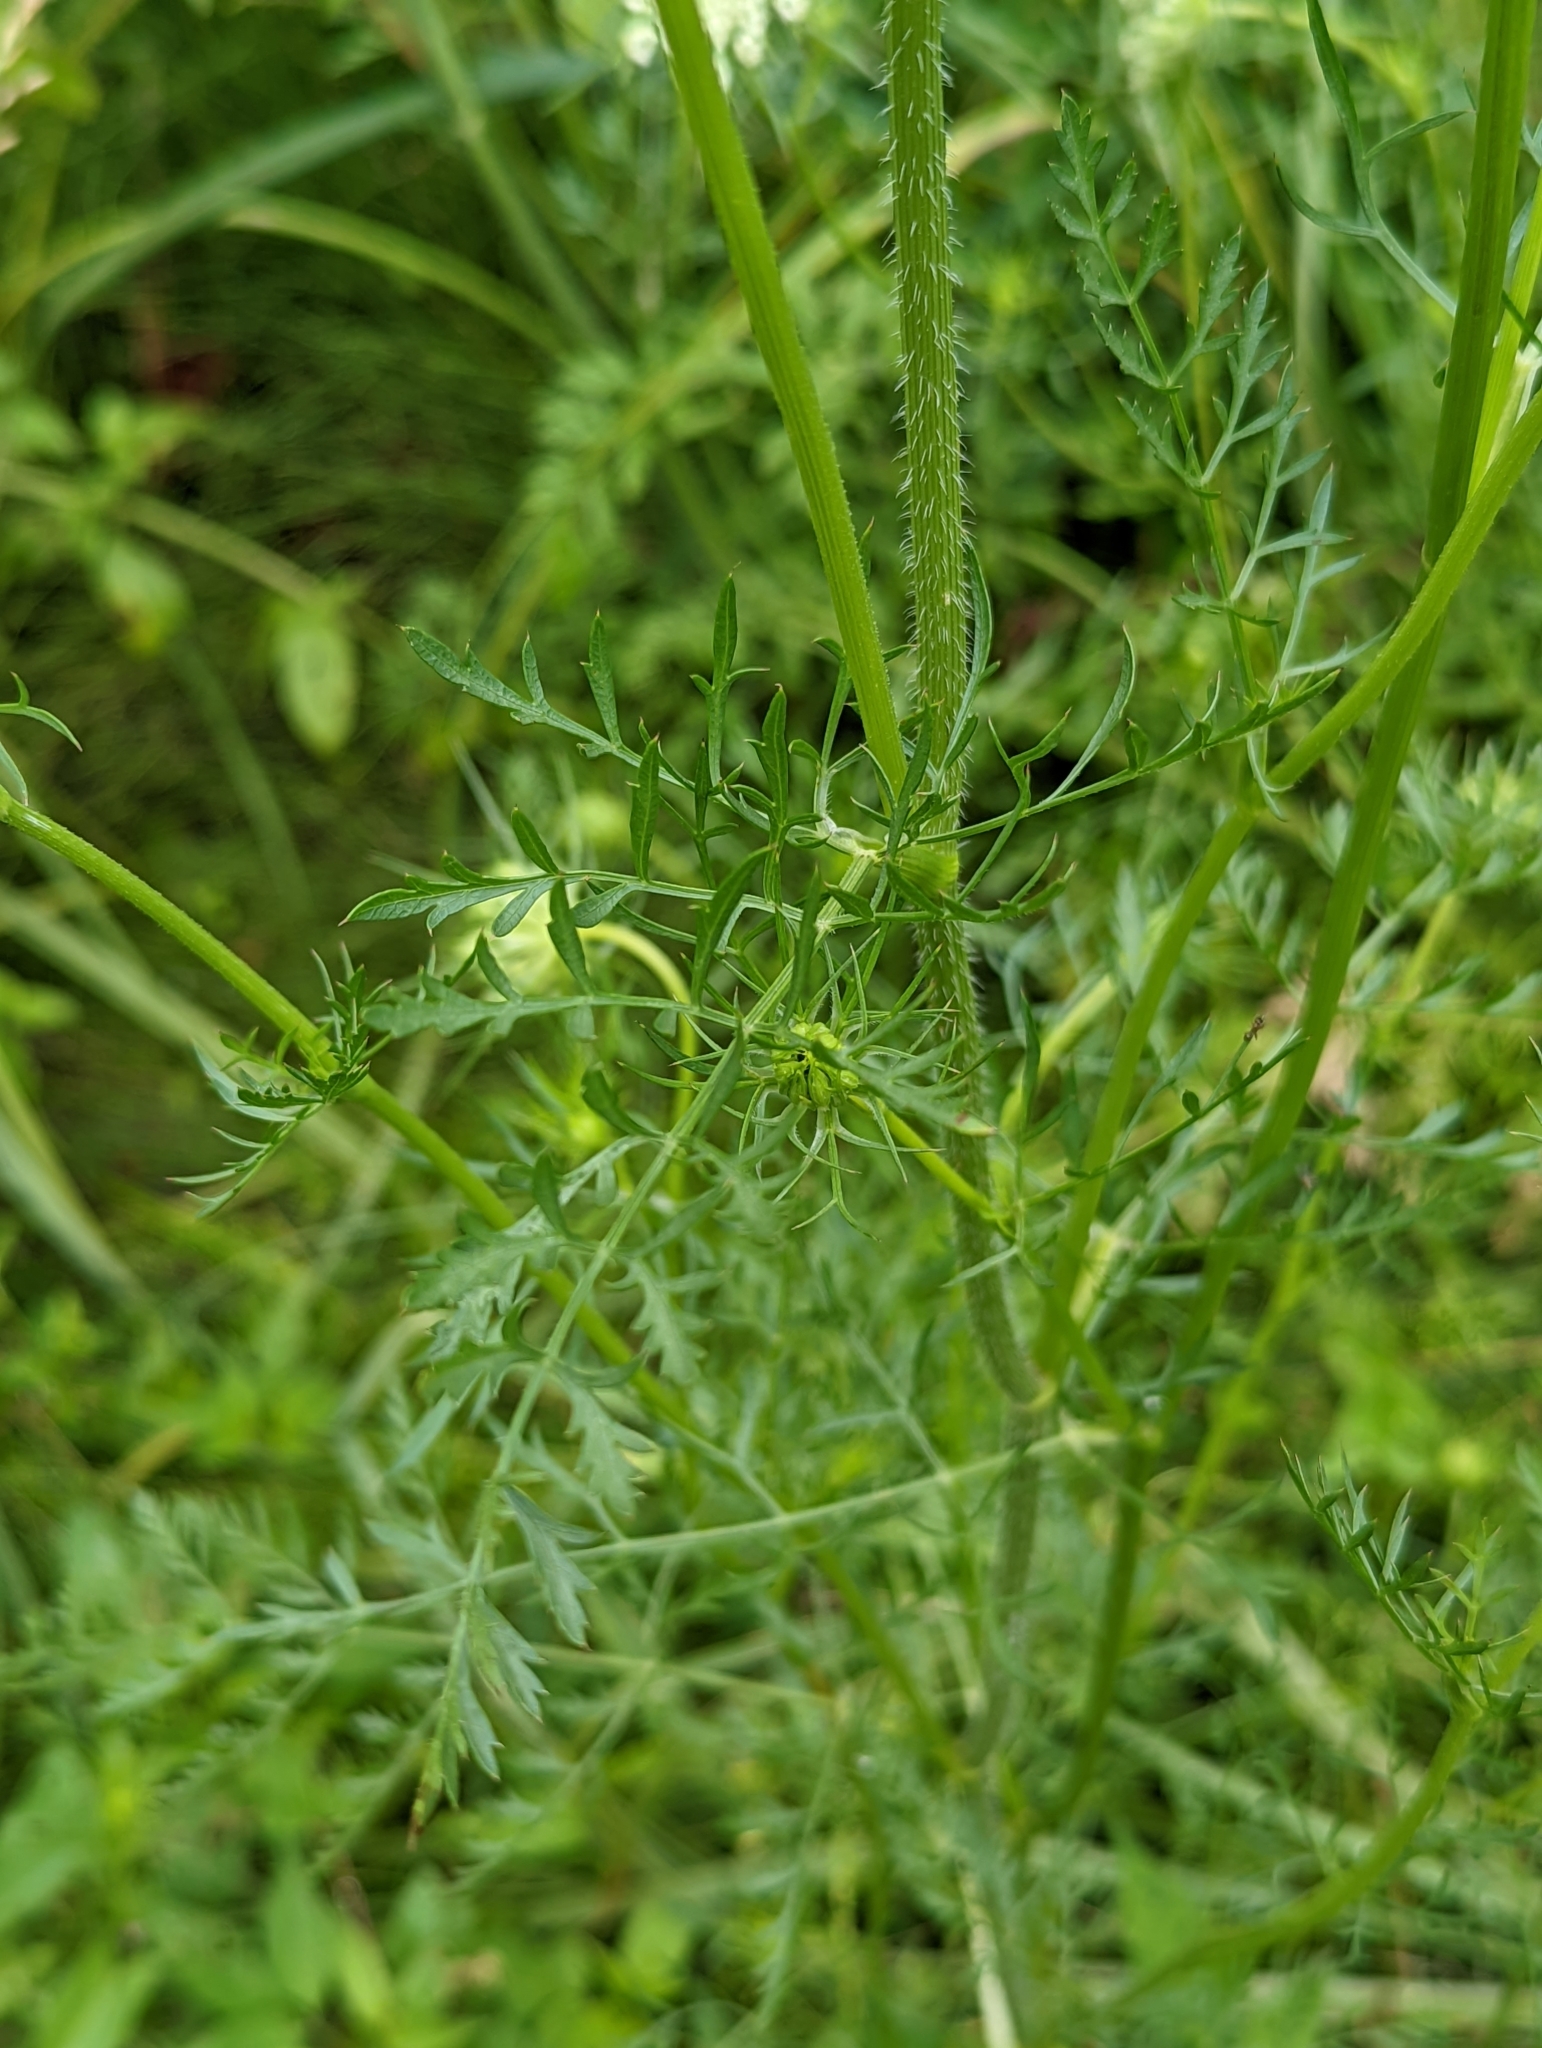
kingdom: Plantae
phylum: Tracheophyta
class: Magnoliopsida
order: Apiales
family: Apiaceae
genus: Daucus
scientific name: Daucus carota
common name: Wild carrot
